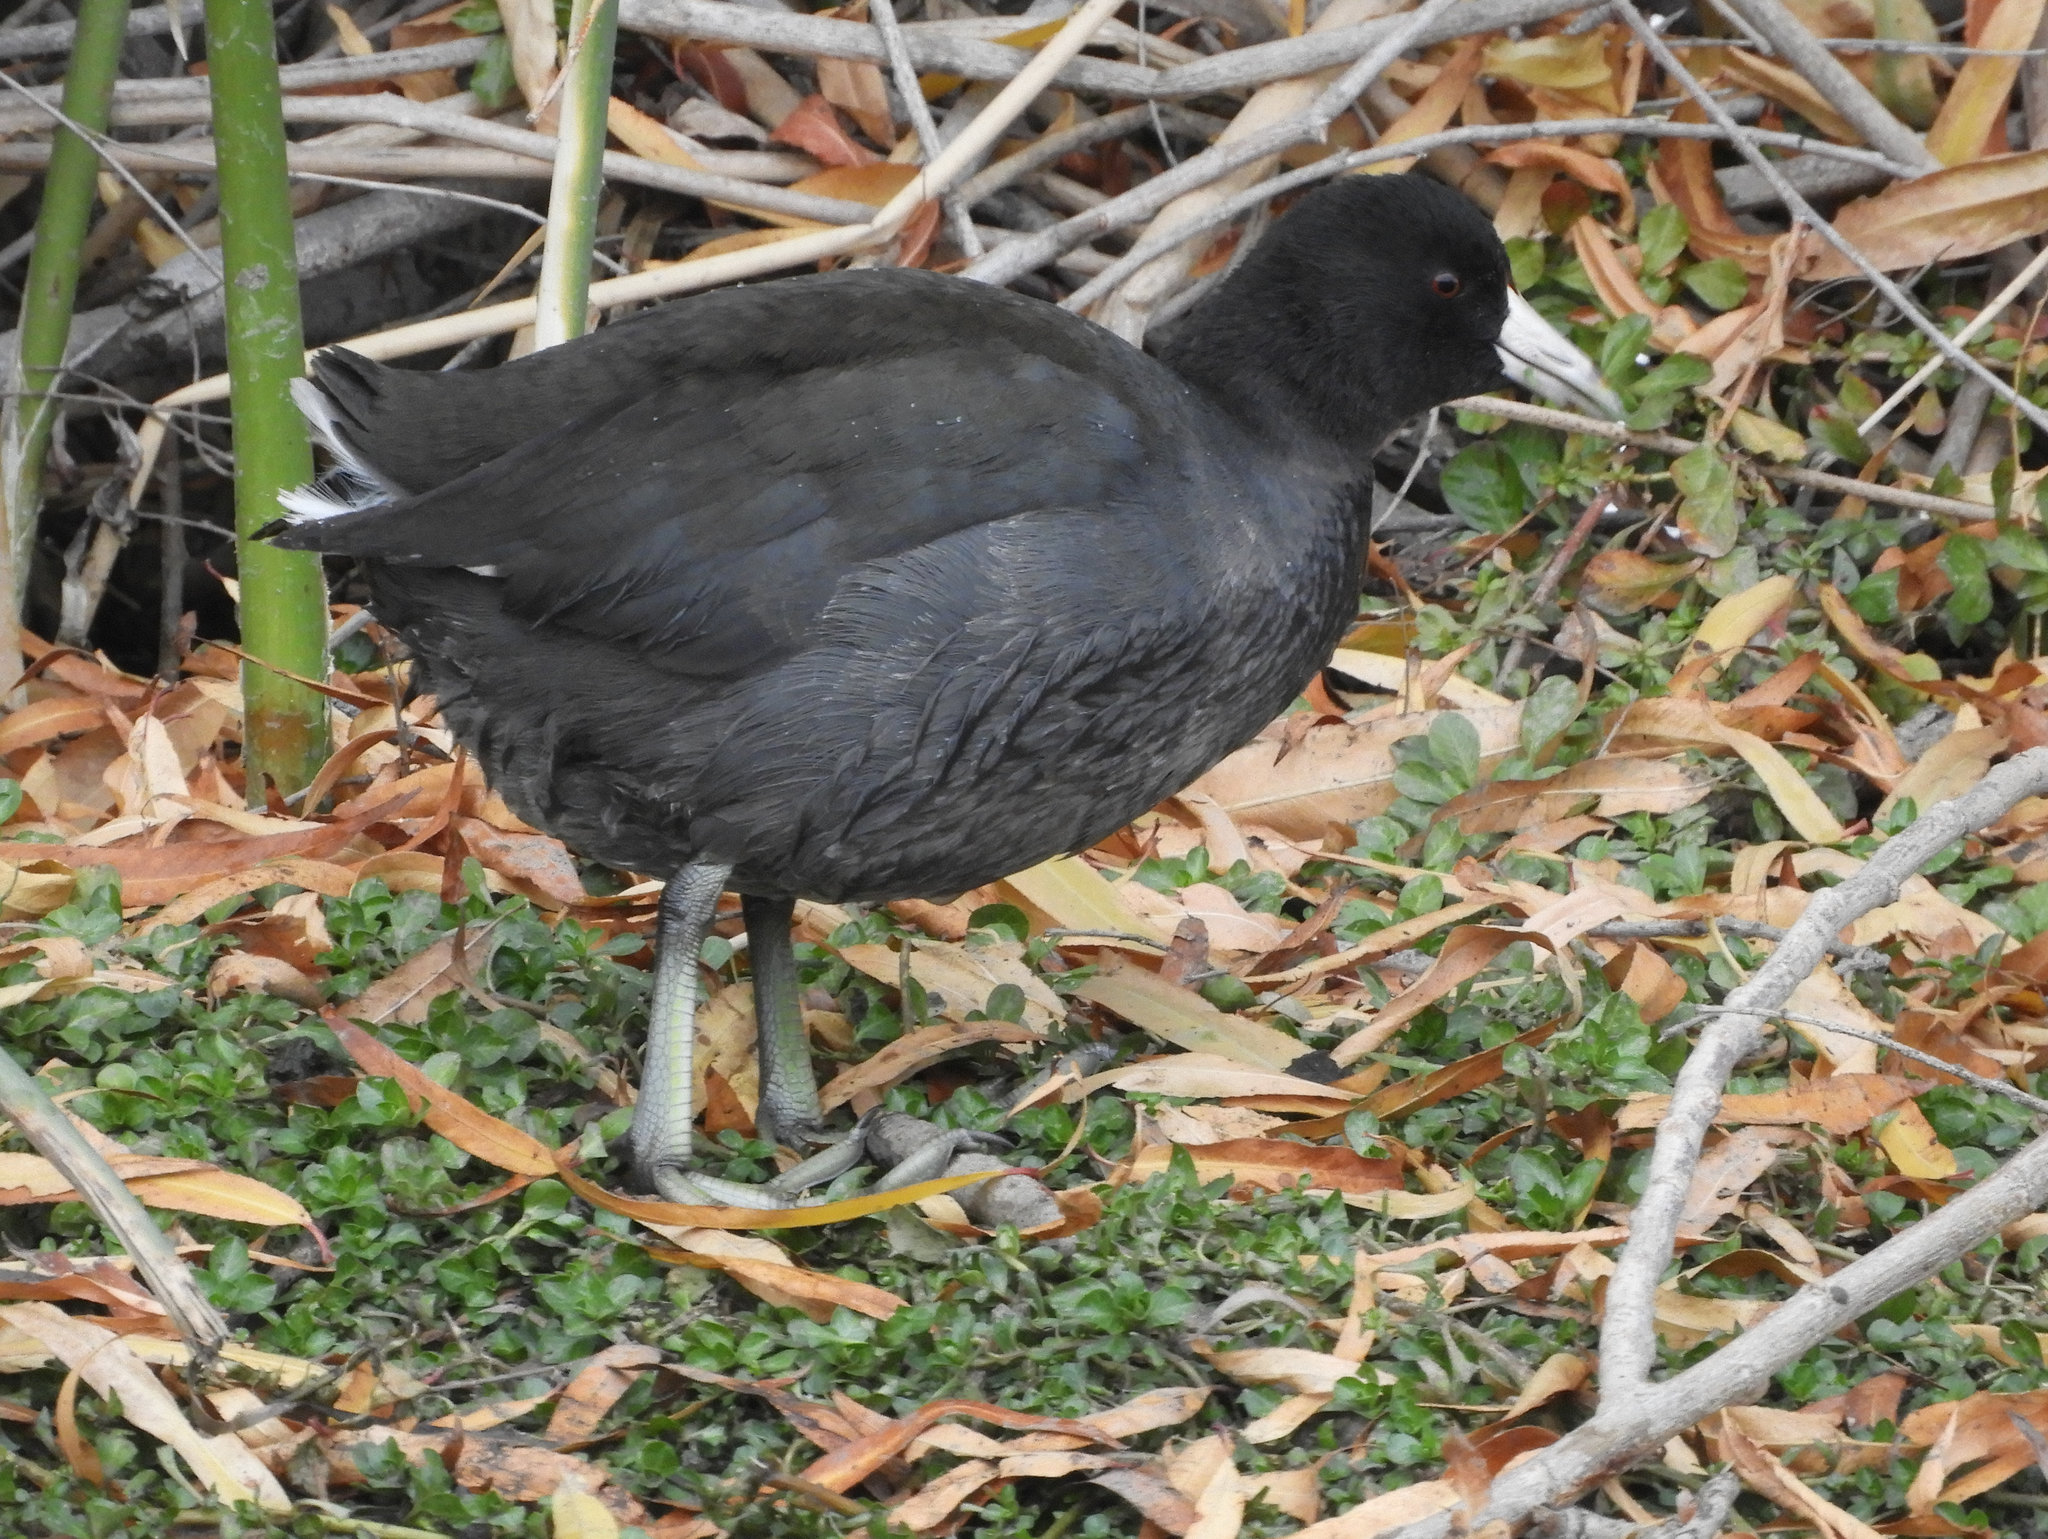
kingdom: Animalia
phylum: Chordata
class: Aves
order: Gruiformes
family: Rallidae
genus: Fulica
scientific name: Fulica americana
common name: American coot
